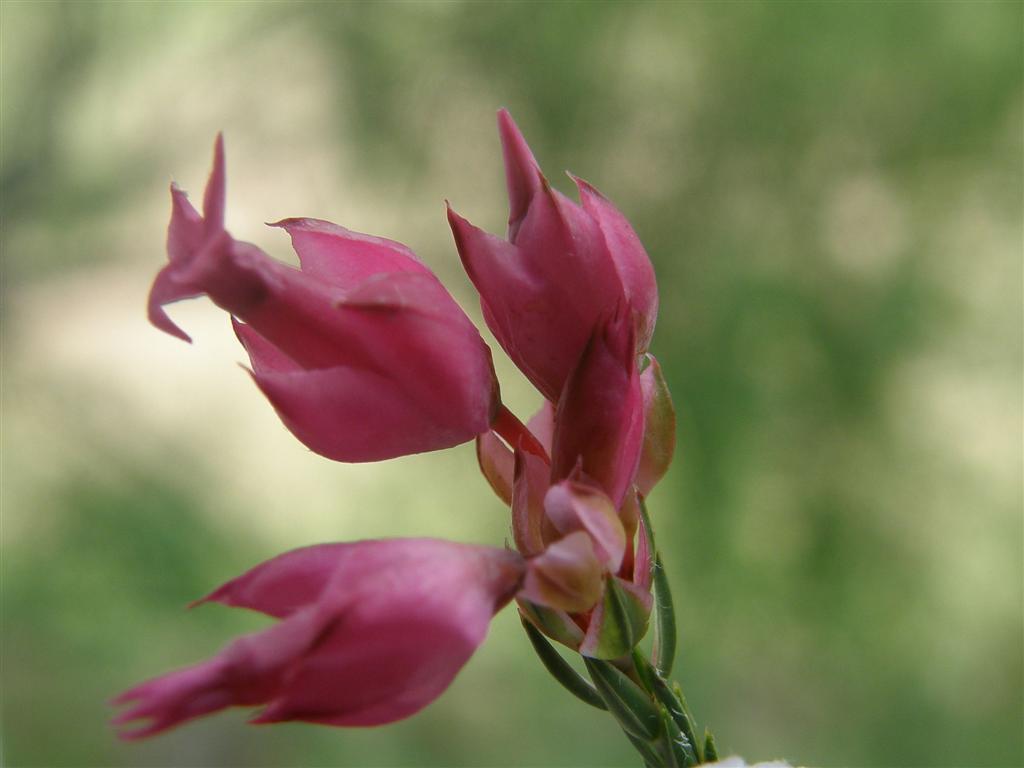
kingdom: Plantae
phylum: Tracheophyta
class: Magnoliopsida
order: Ericales
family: Ericaceae
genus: Erica
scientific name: Erica borboniifolia
